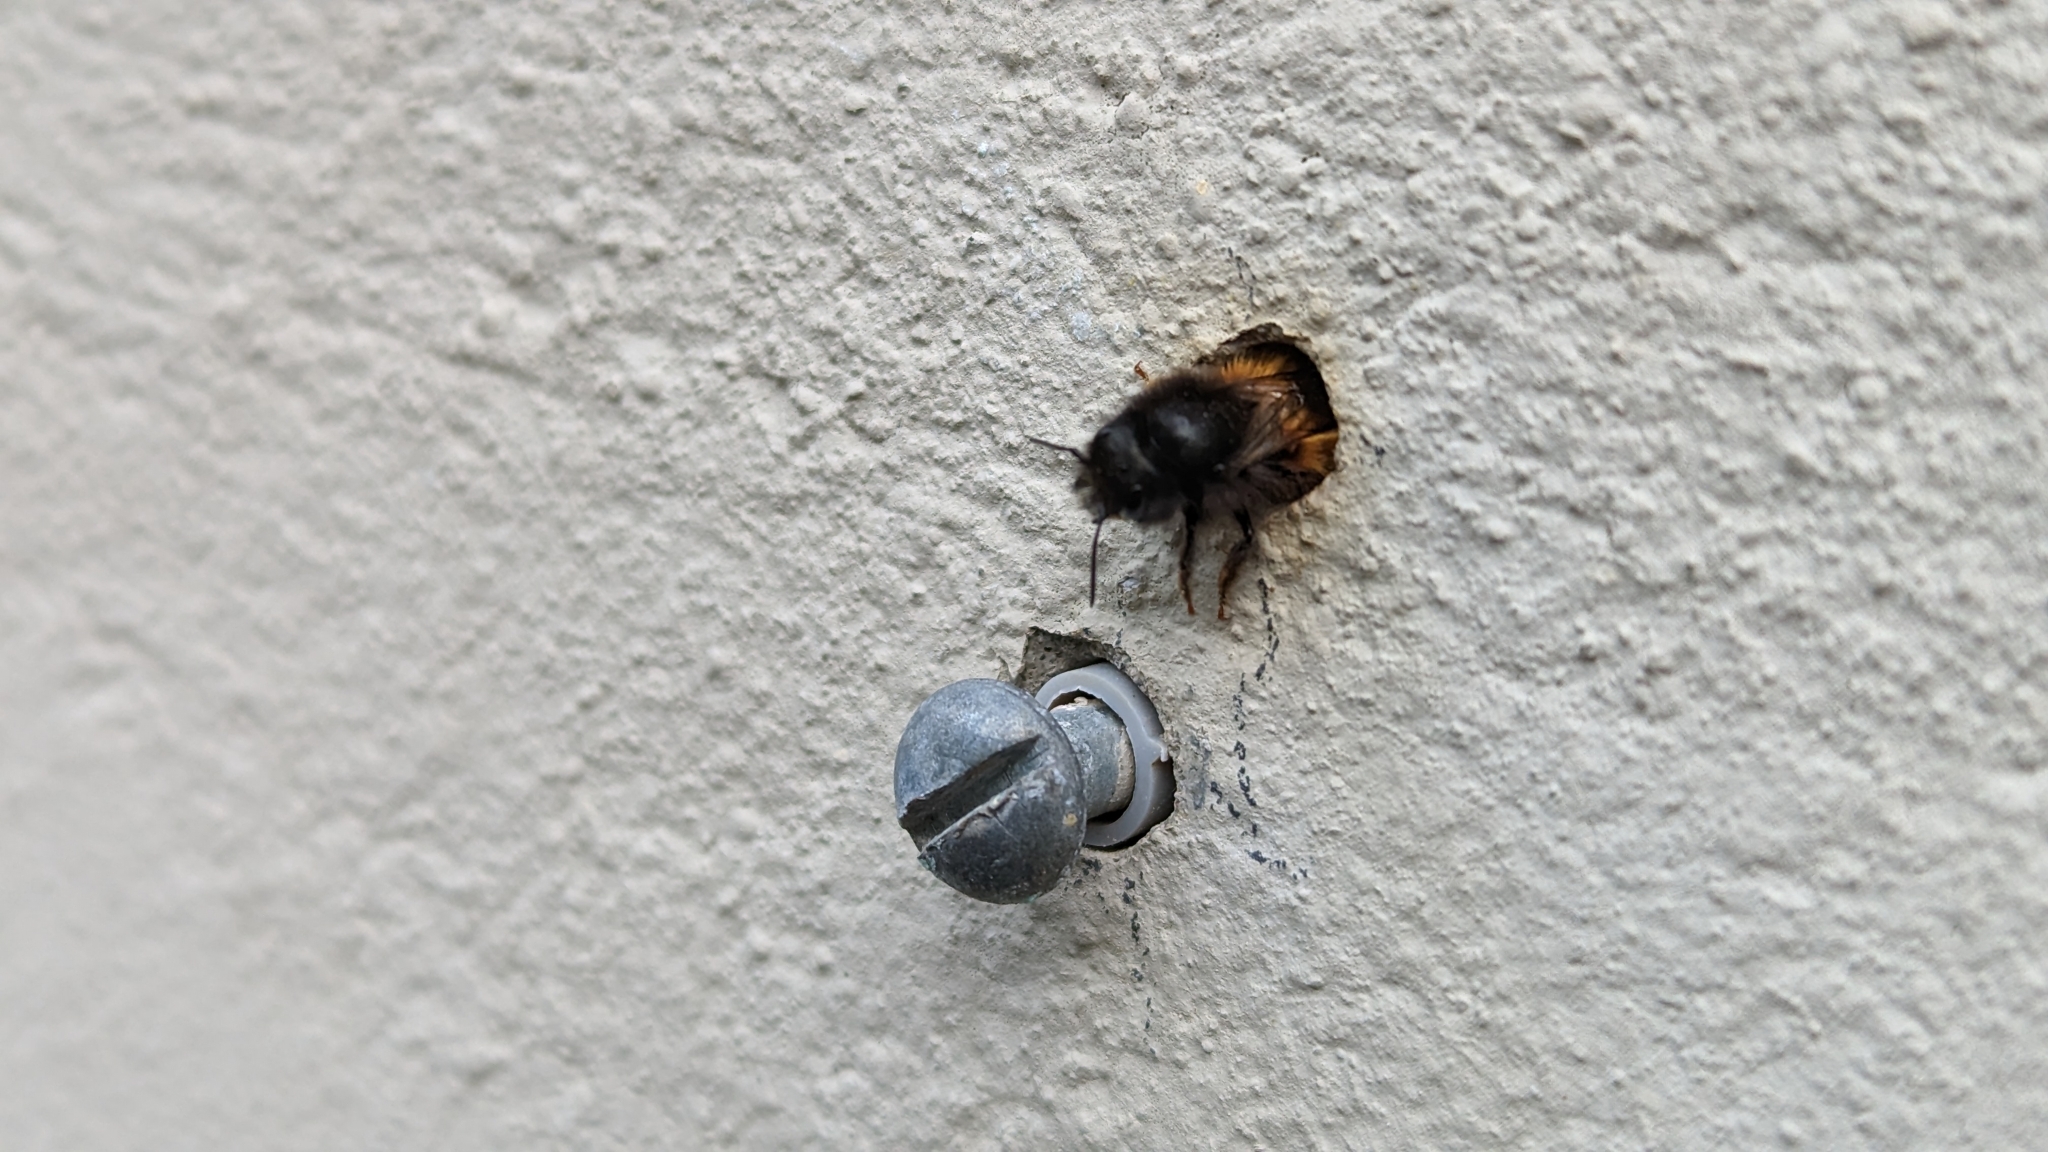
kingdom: Animalia
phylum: Arthropoda
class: Insecta
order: Hymenoptera
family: Megachilidae
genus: Osmia
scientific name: Osmia cornuta
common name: Mason bee
